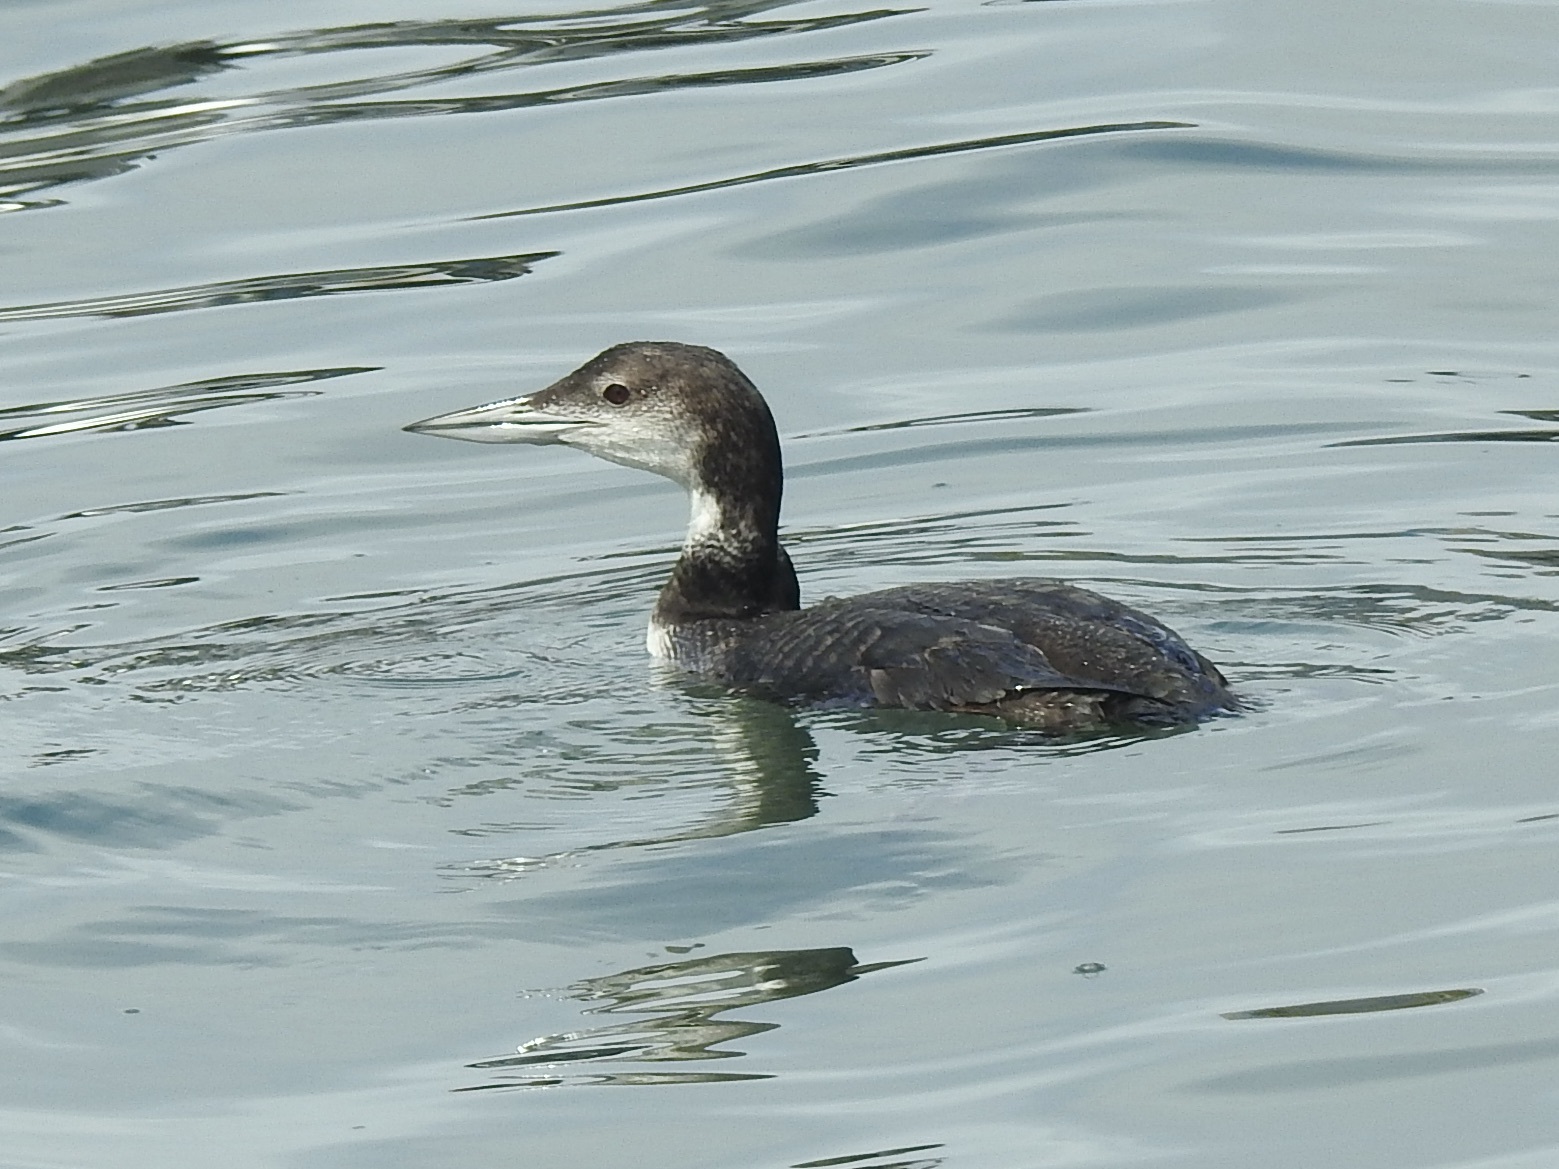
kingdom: Animalia
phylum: Chordata
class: Aves
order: Gaviiformes
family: Gaviidae
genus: Gavia
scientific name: Gavia immer
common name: Common loon
